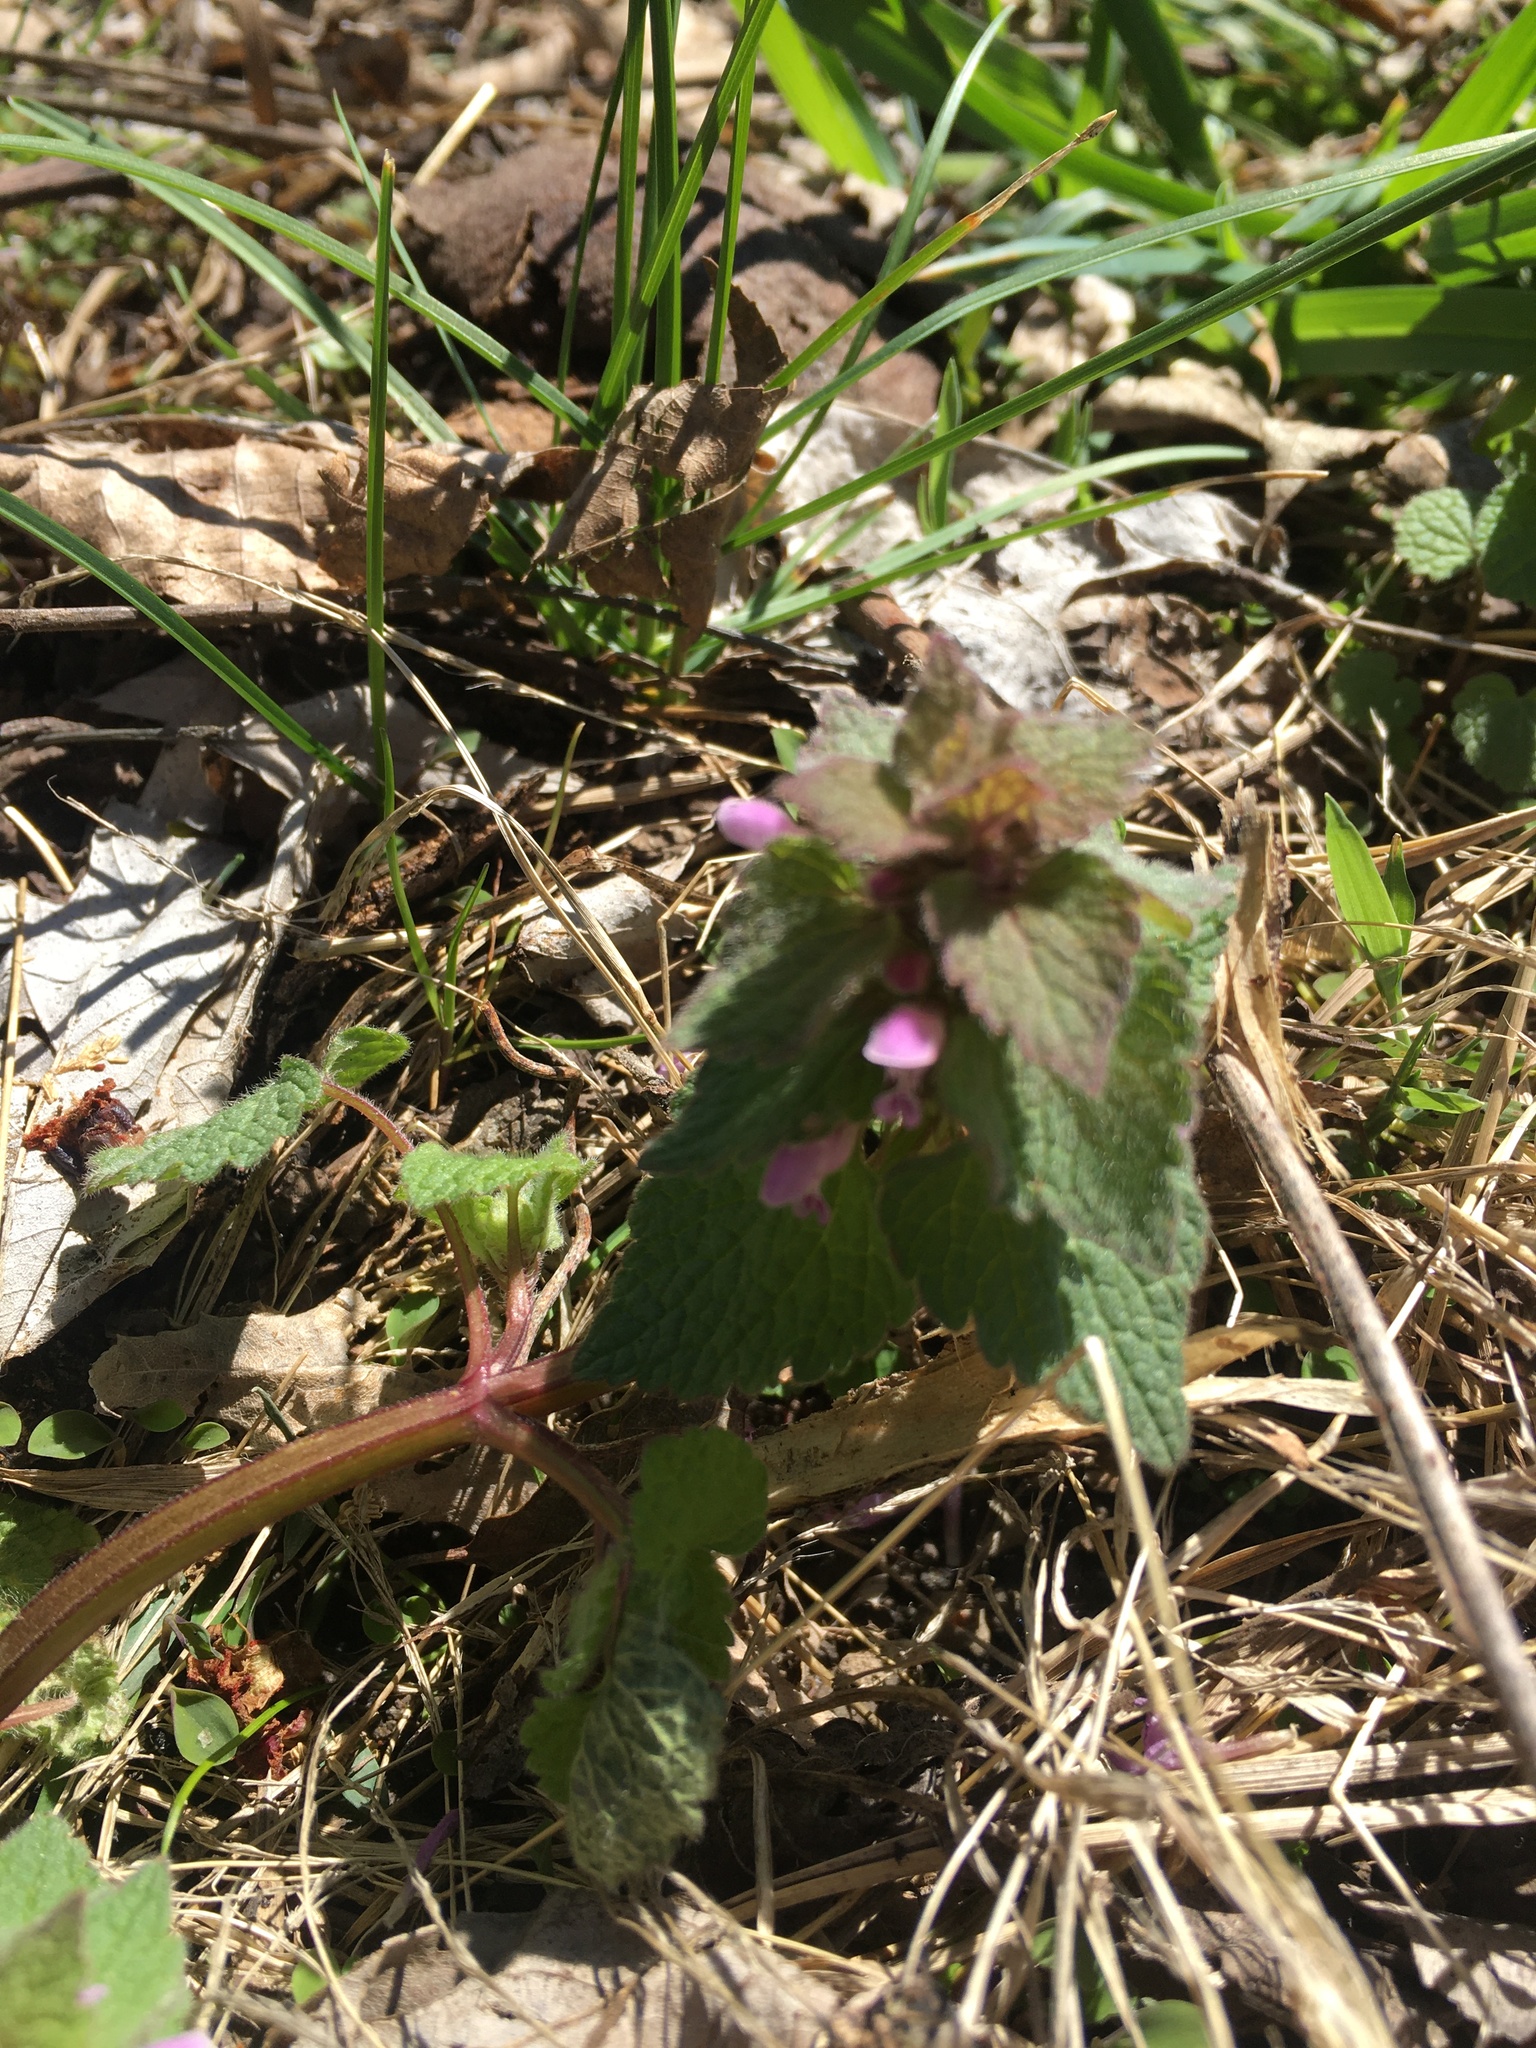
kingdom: Plantae
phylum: Tracheophyta
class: Magnoliopsida
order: Lamiales
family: Lamiaceae
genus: Lamium
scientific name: Lamium purpureum
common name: Red dead-nettle
